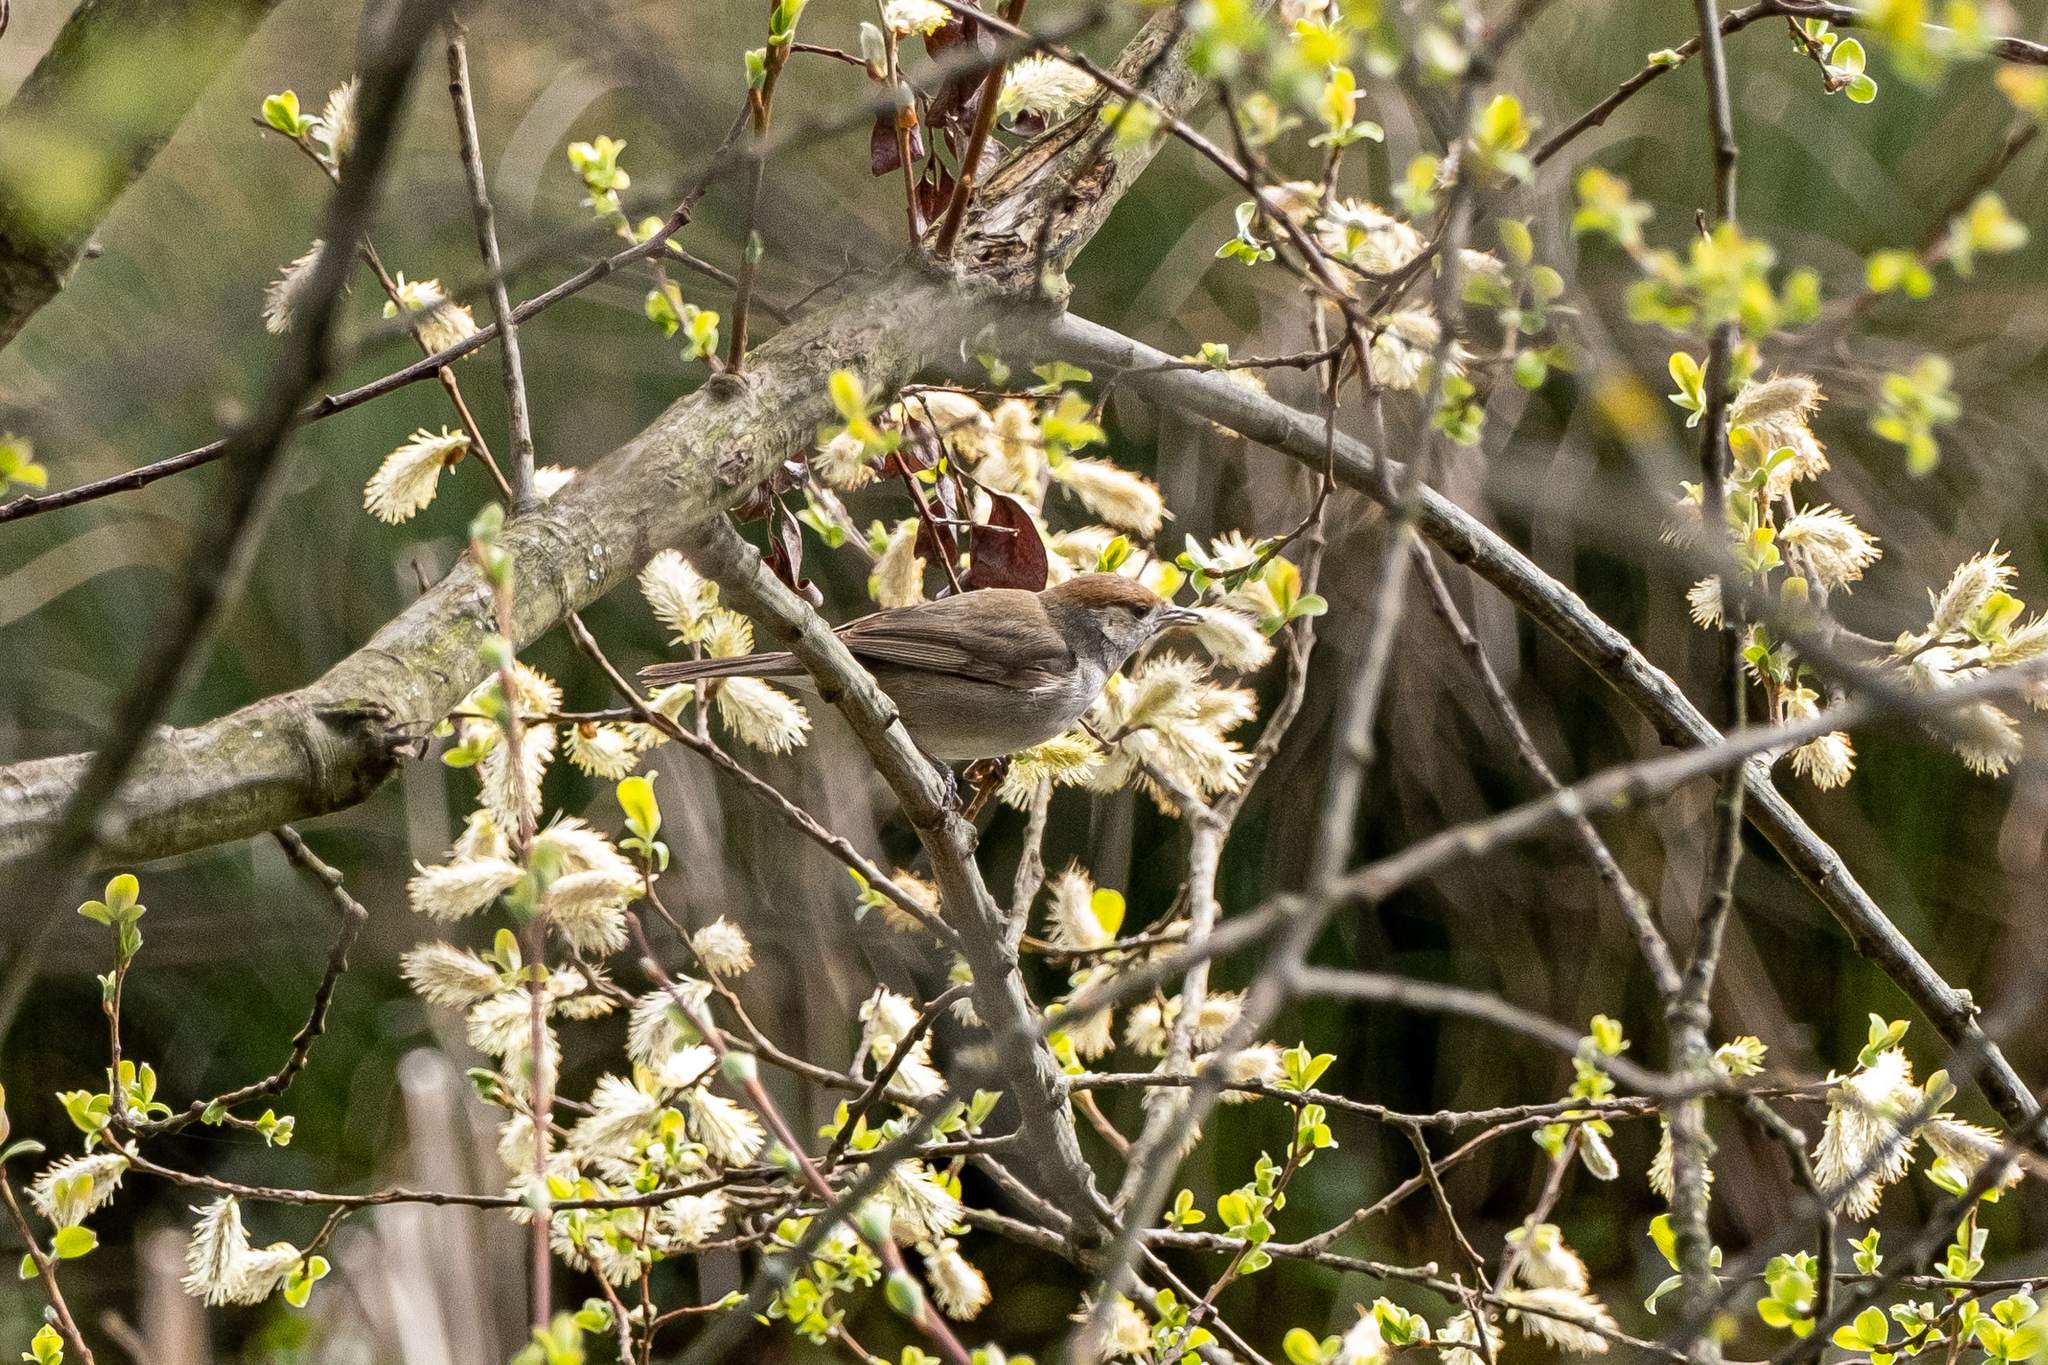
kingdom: Animalia
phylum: Chordata
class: Aves
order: Passeriformes
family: Sylviidae
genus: Sylvia
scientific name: Sylvia atricapilla
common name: Eurasian blackcap
